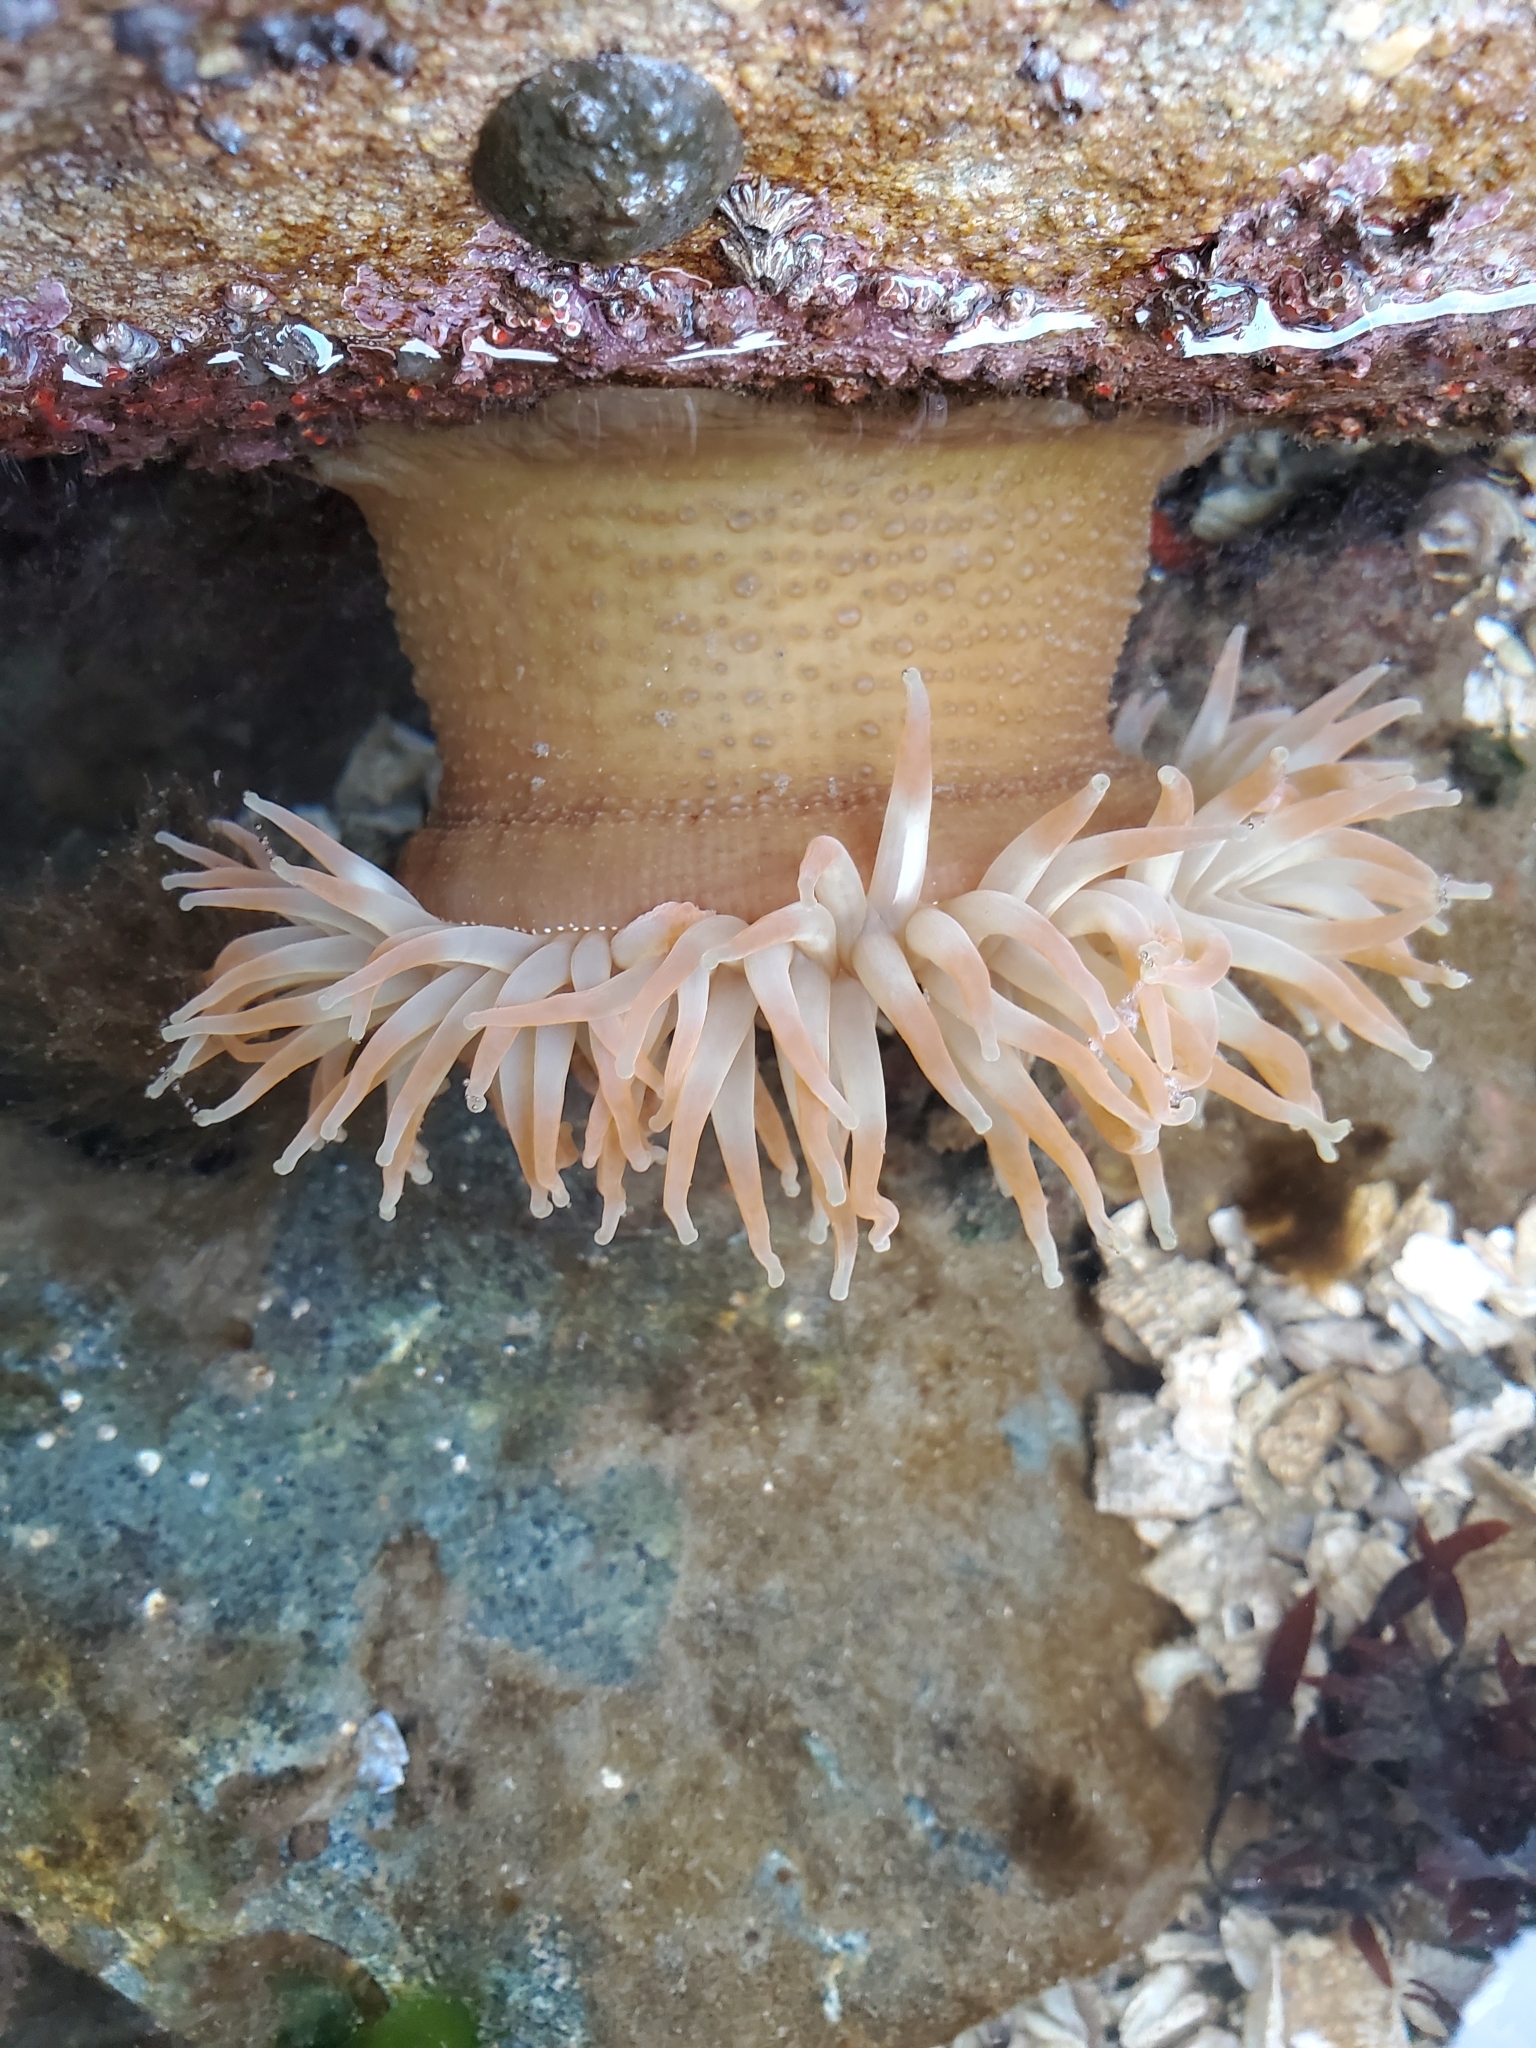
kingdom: Animalia
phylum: Cnidaria
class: Anthozoa
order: Actiniaria
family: Actiniidae
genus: Urticina
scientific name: Urticina grebelnyi
